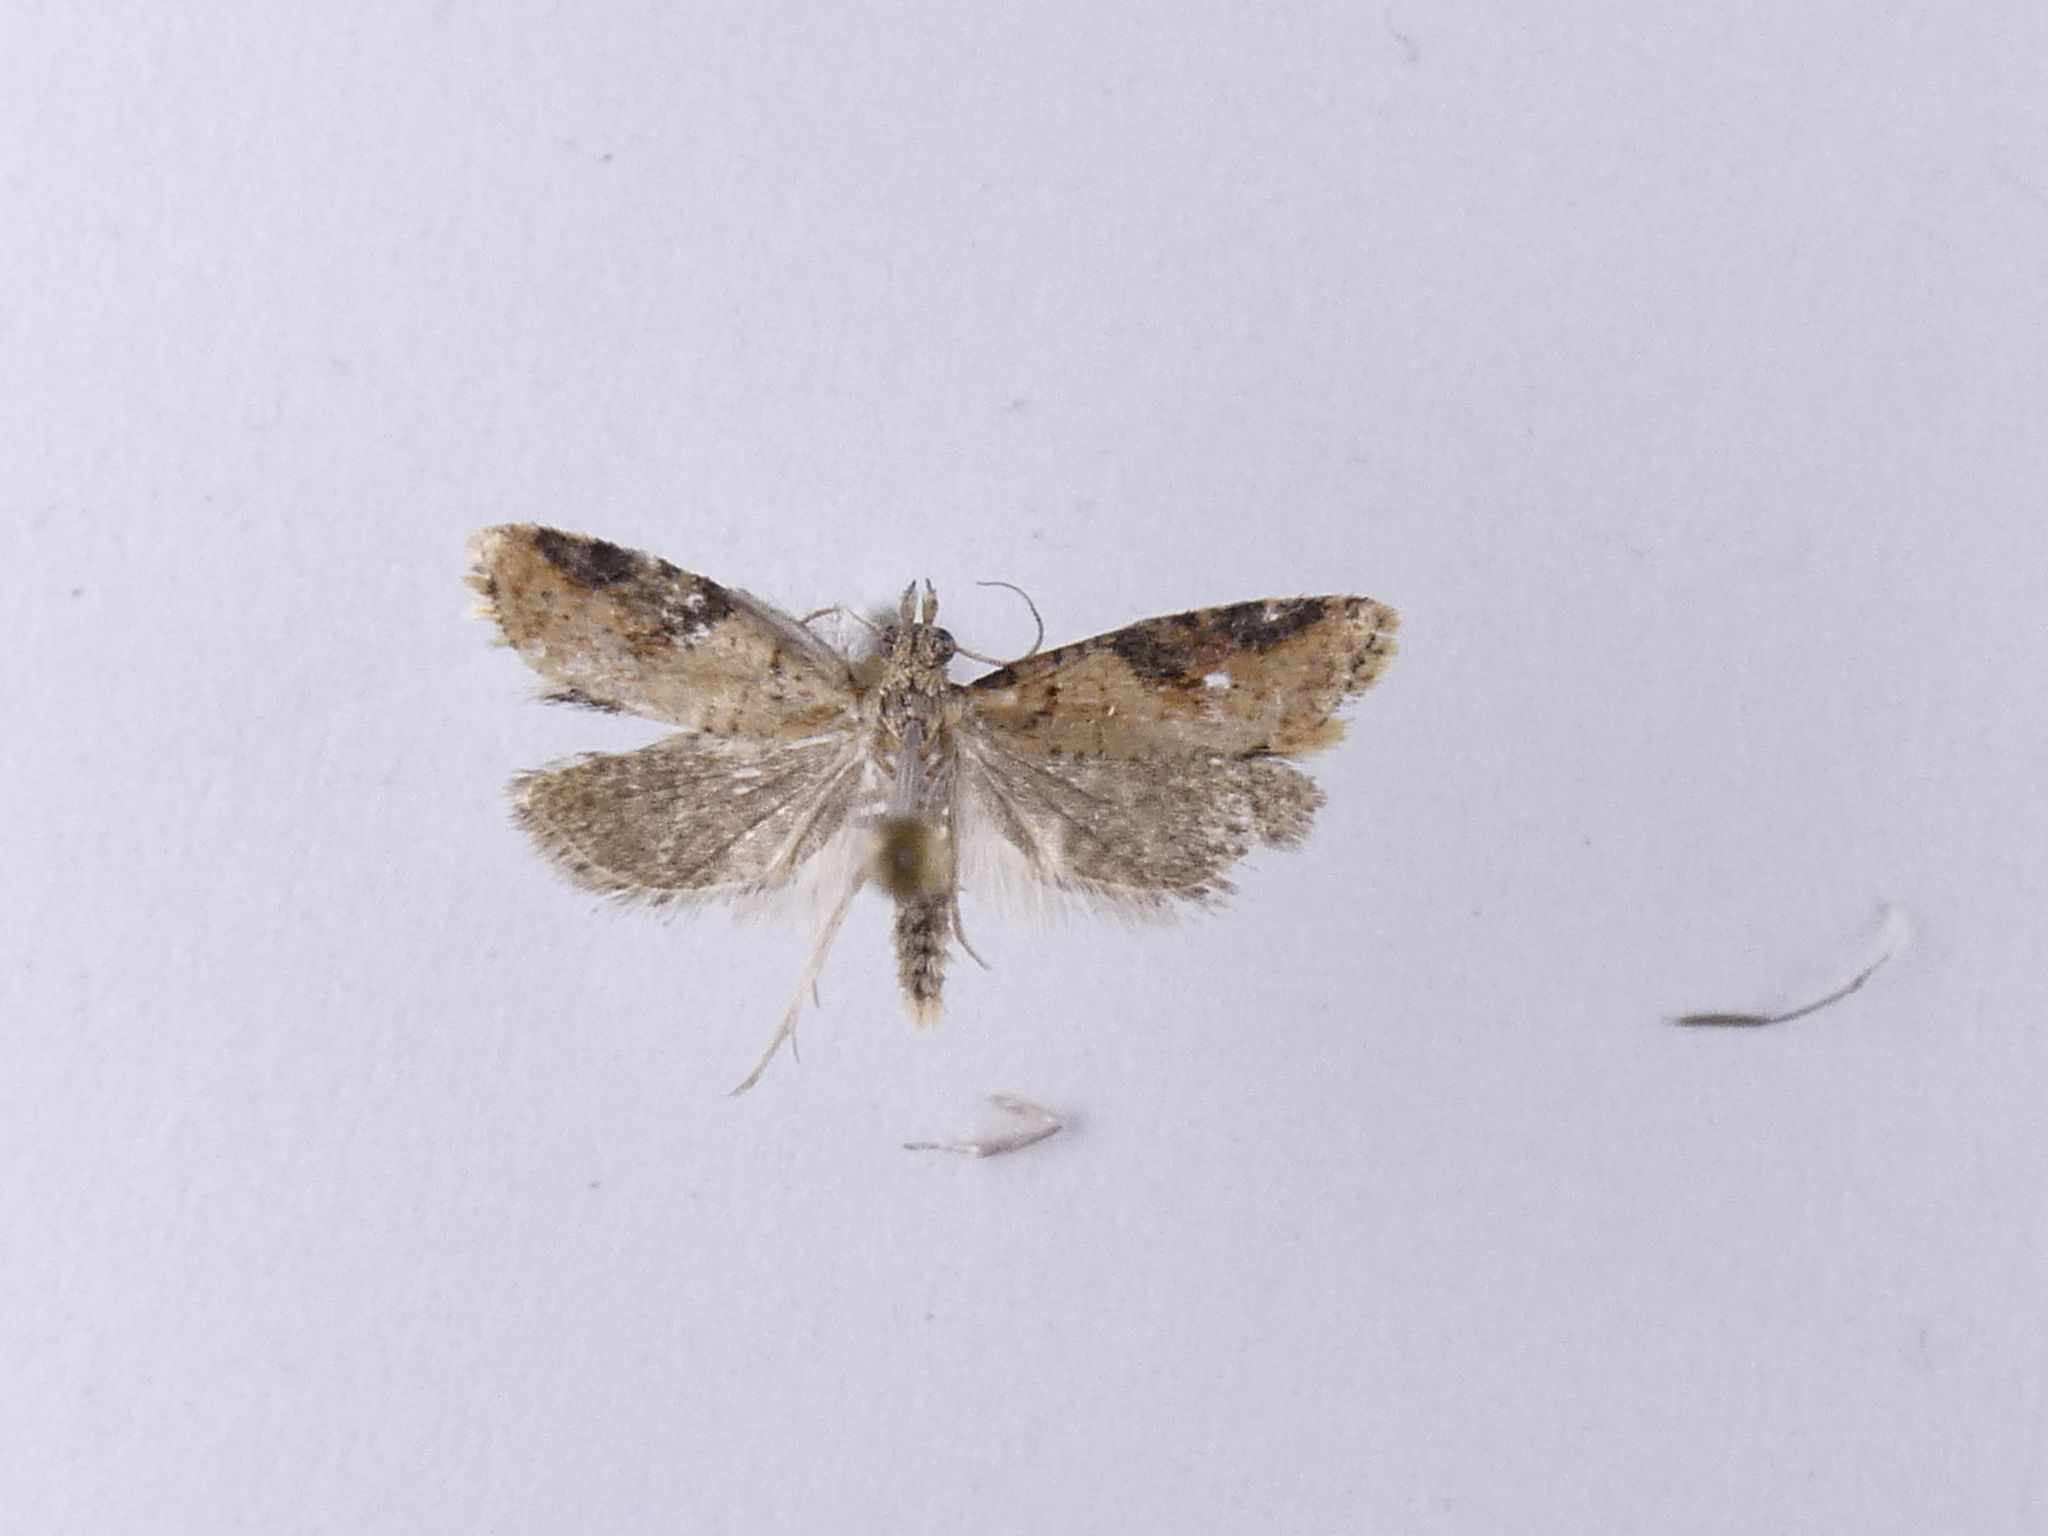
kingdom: Animalia
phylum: Arthropoda
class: Insecta
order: Lepidoptera
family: Tortricidae
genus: Capua
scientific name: Capua semiferana
